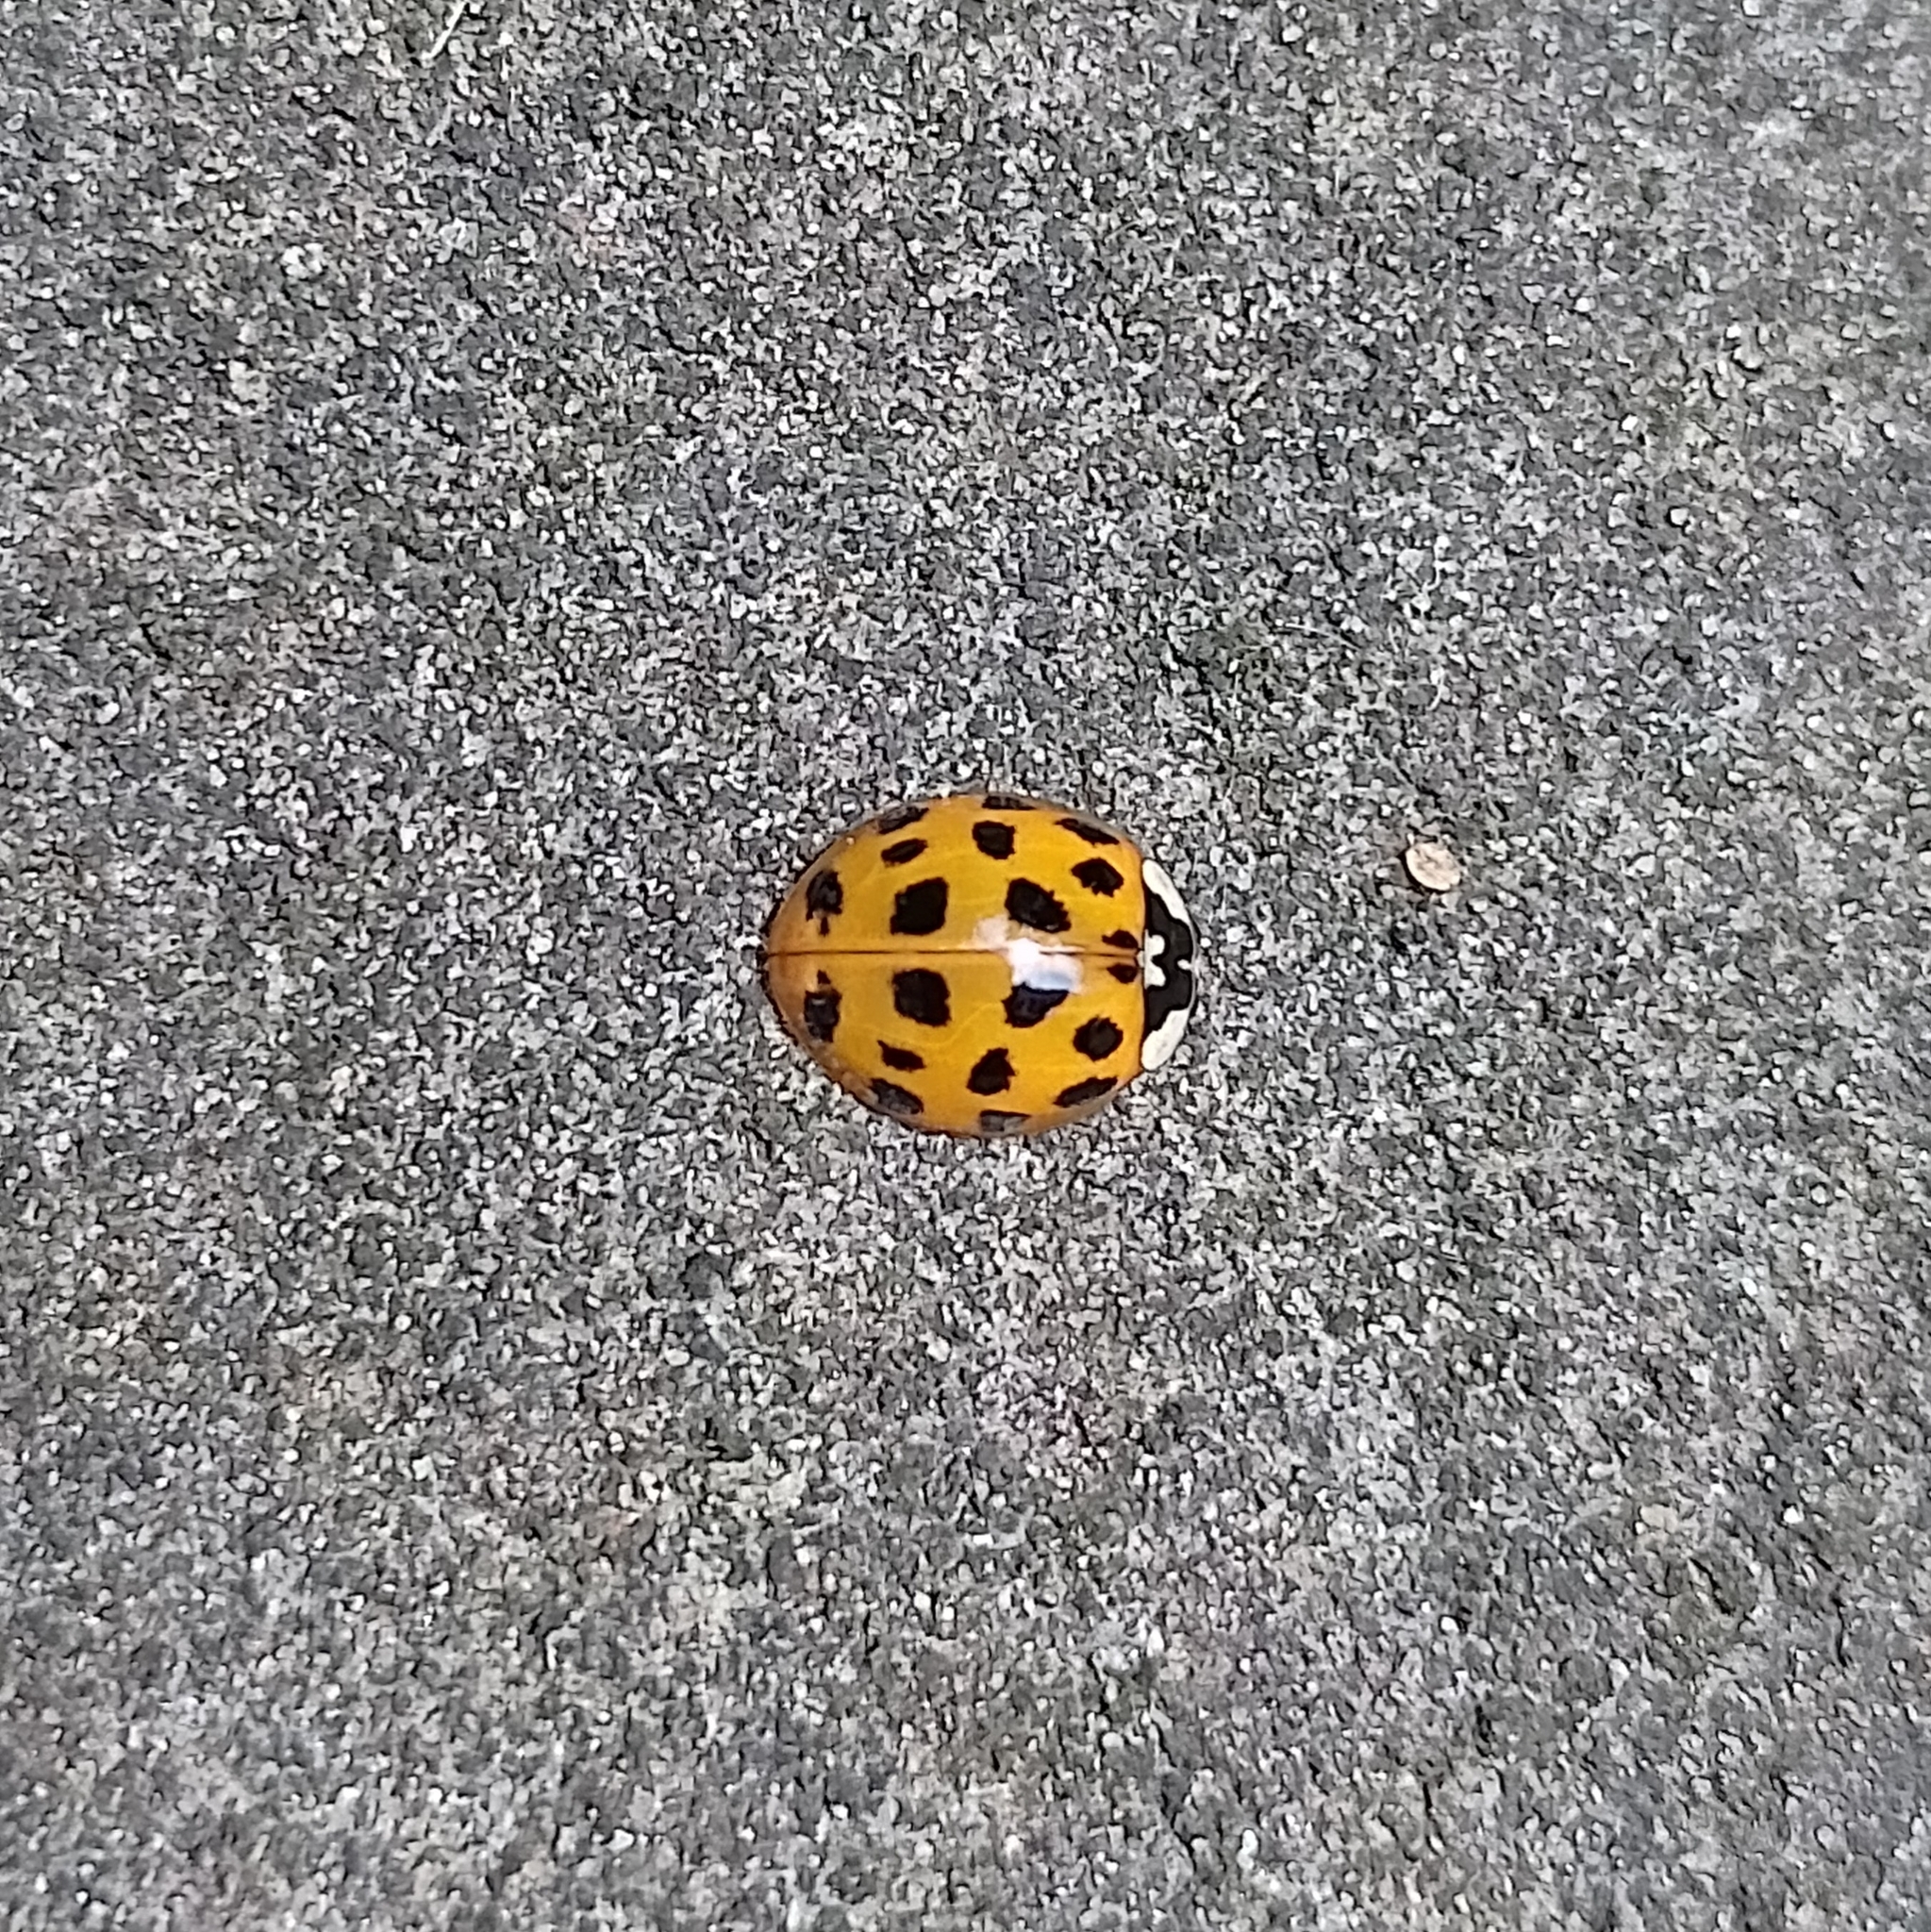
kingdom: Animalia
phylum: Arthropoda
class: Insecta
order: Coleoptera
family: Coccinellidae
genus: Harmonia
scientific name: Harmonia axyridis
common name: Harlequin ladybird
